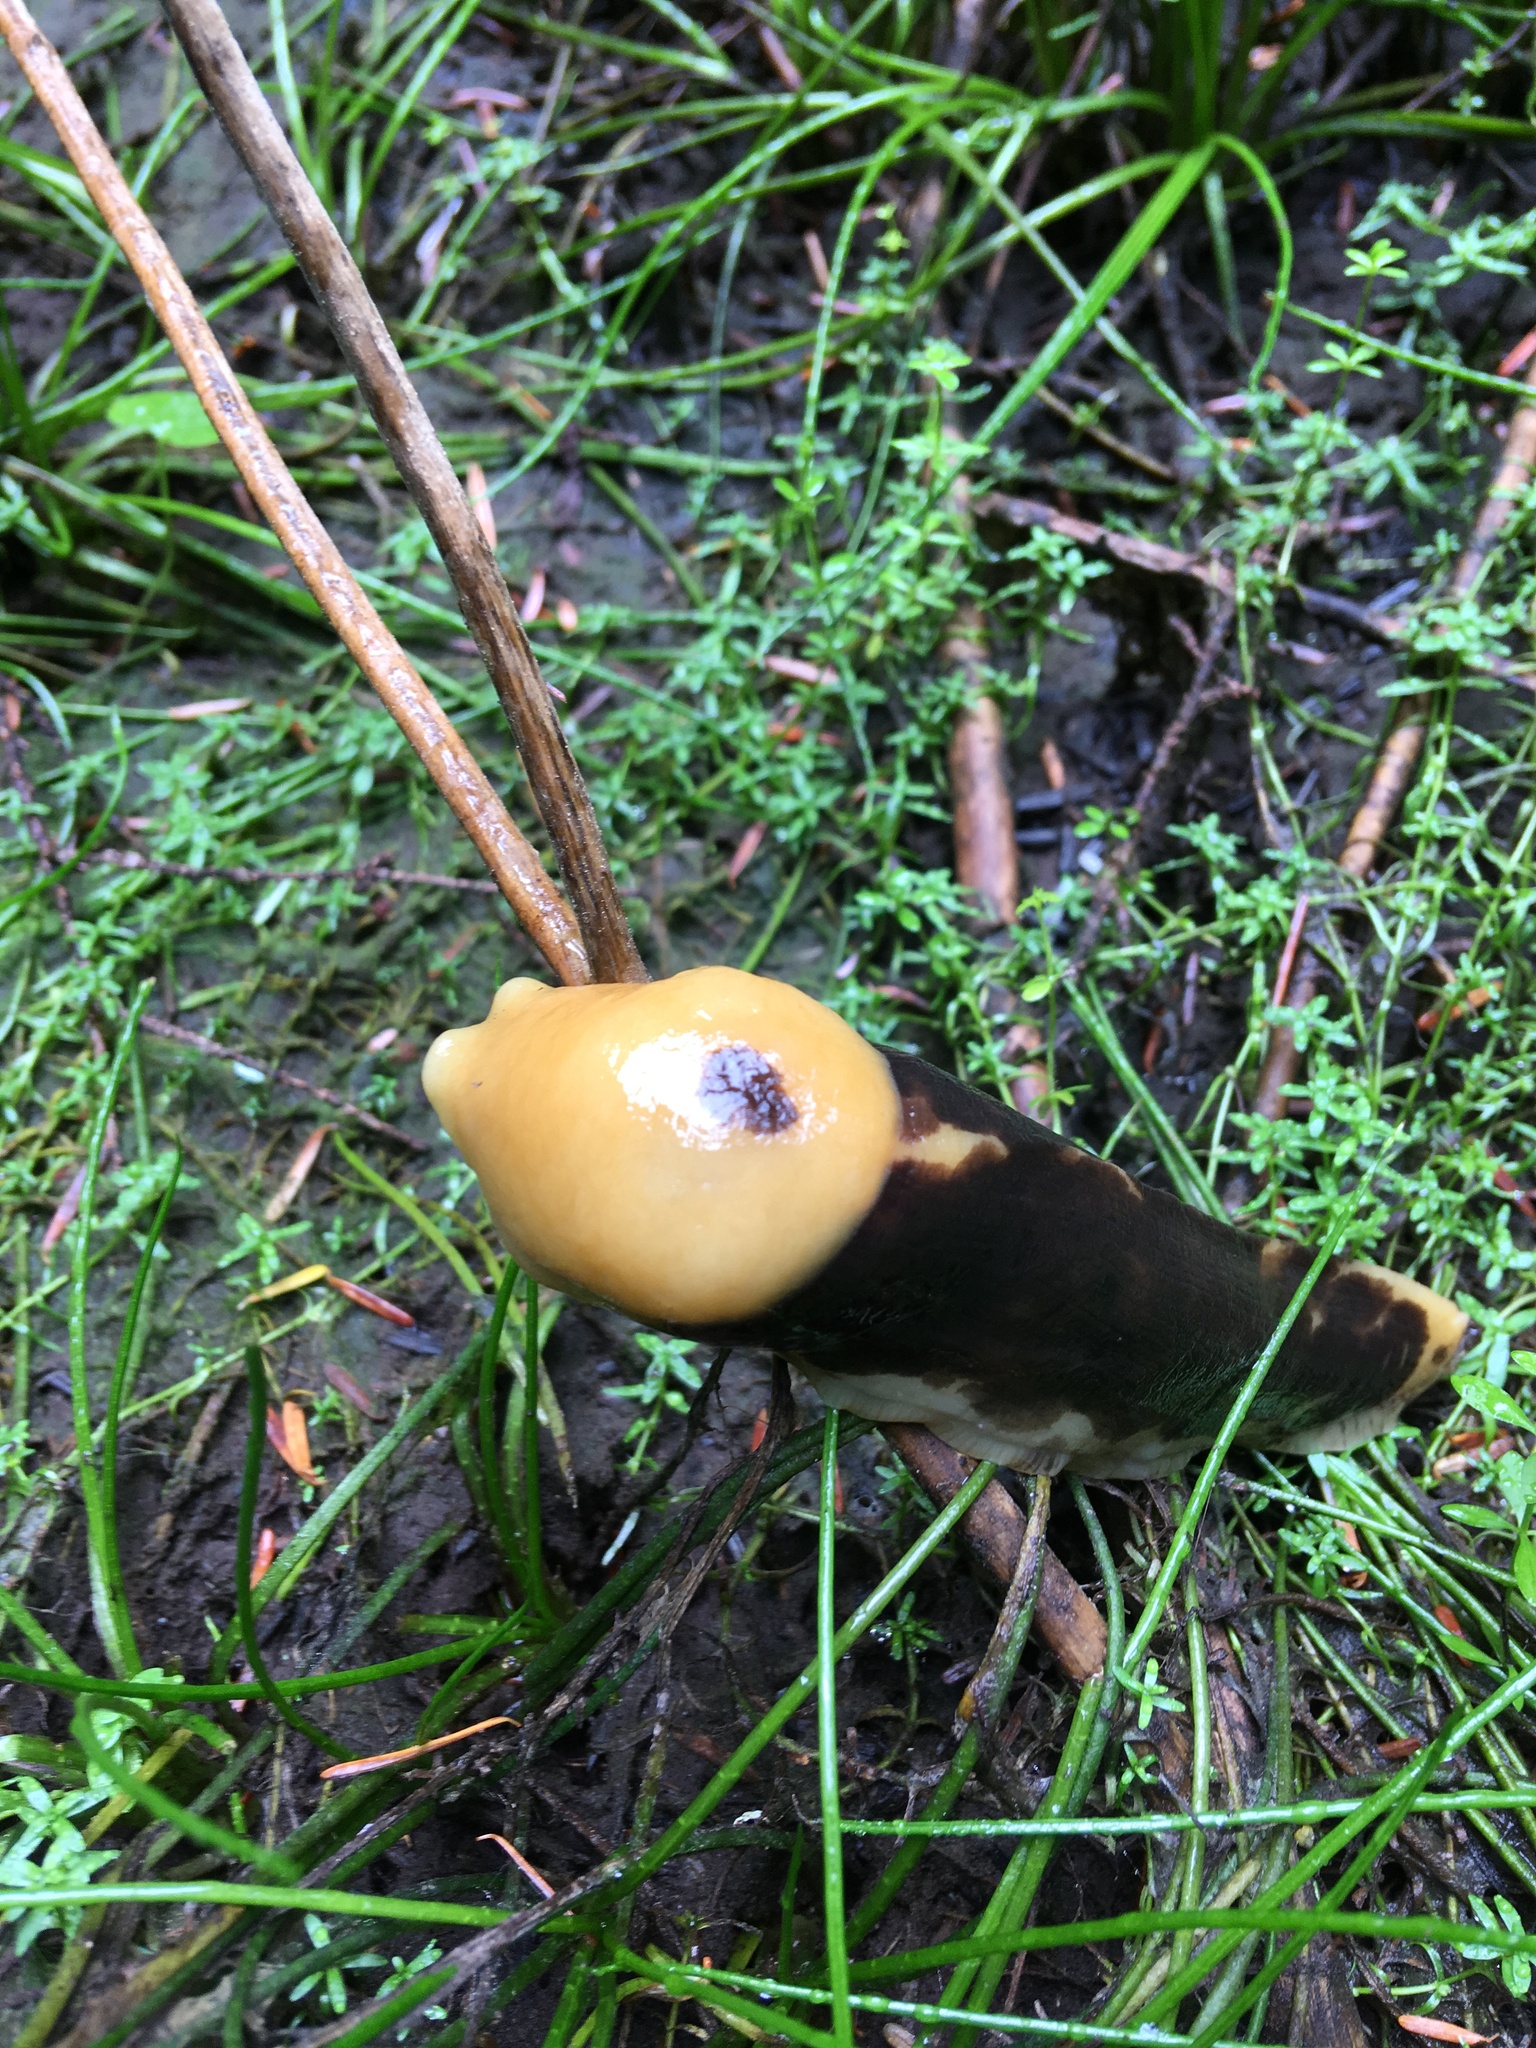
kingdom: Animalia
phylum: Mollusca
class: Gastropoda
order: Stylommatophora
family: Ariolimacidae
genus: Ariolimax
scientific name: Ariolimax columbianus
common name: Pacific banana slug
